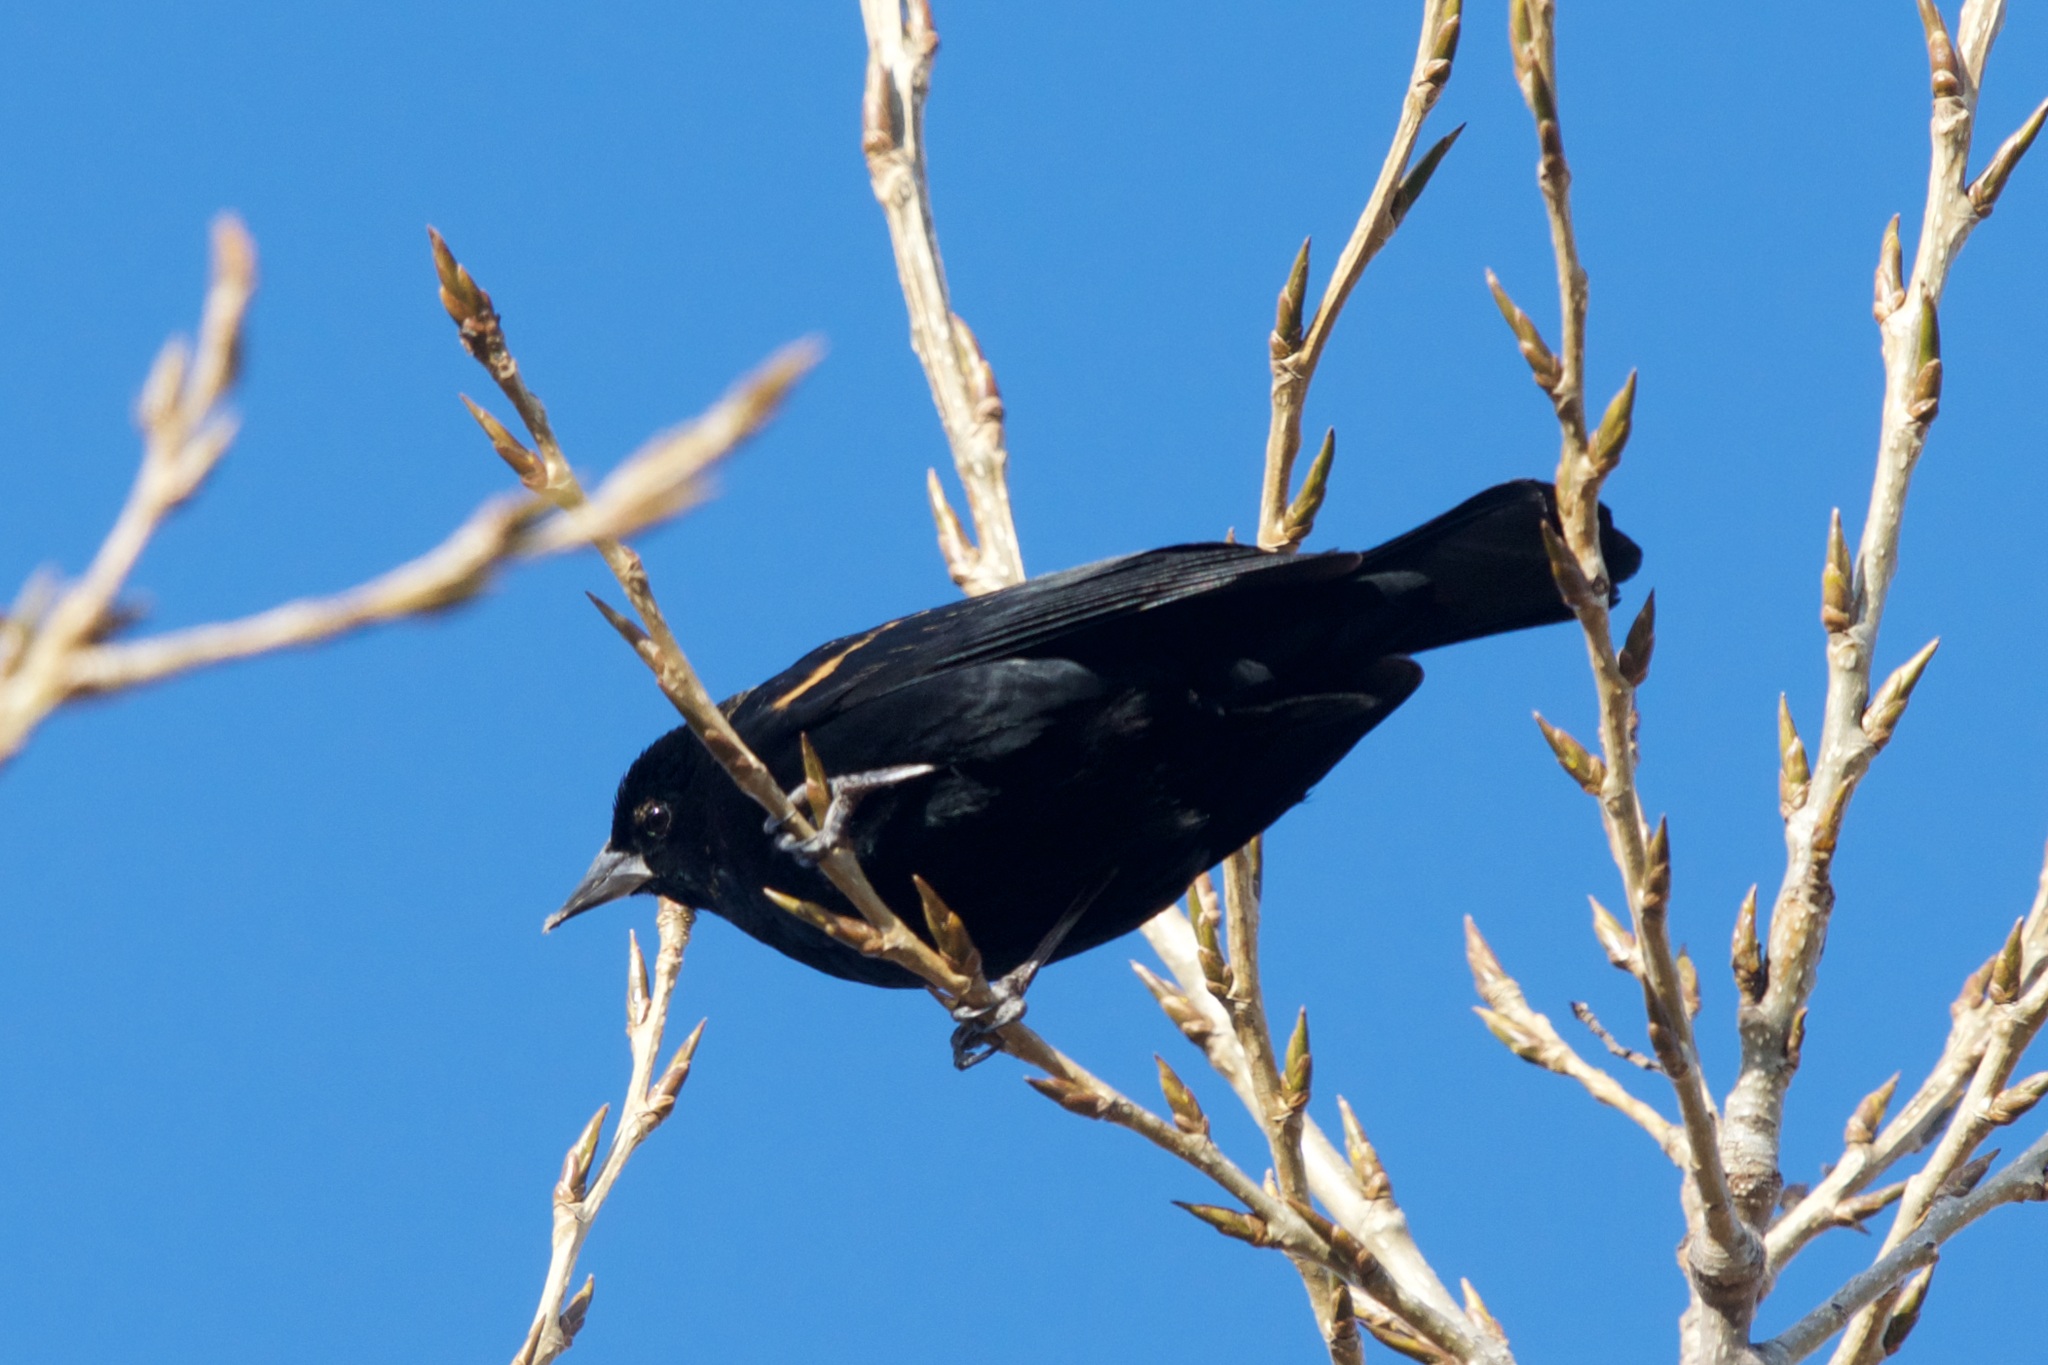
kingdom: Animalia
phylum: Chordata
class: Aves
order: Passeriformes
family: Icteridae
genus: Agelaius
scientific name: Agelaius phoeniceus
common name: Red-winged blackbird
